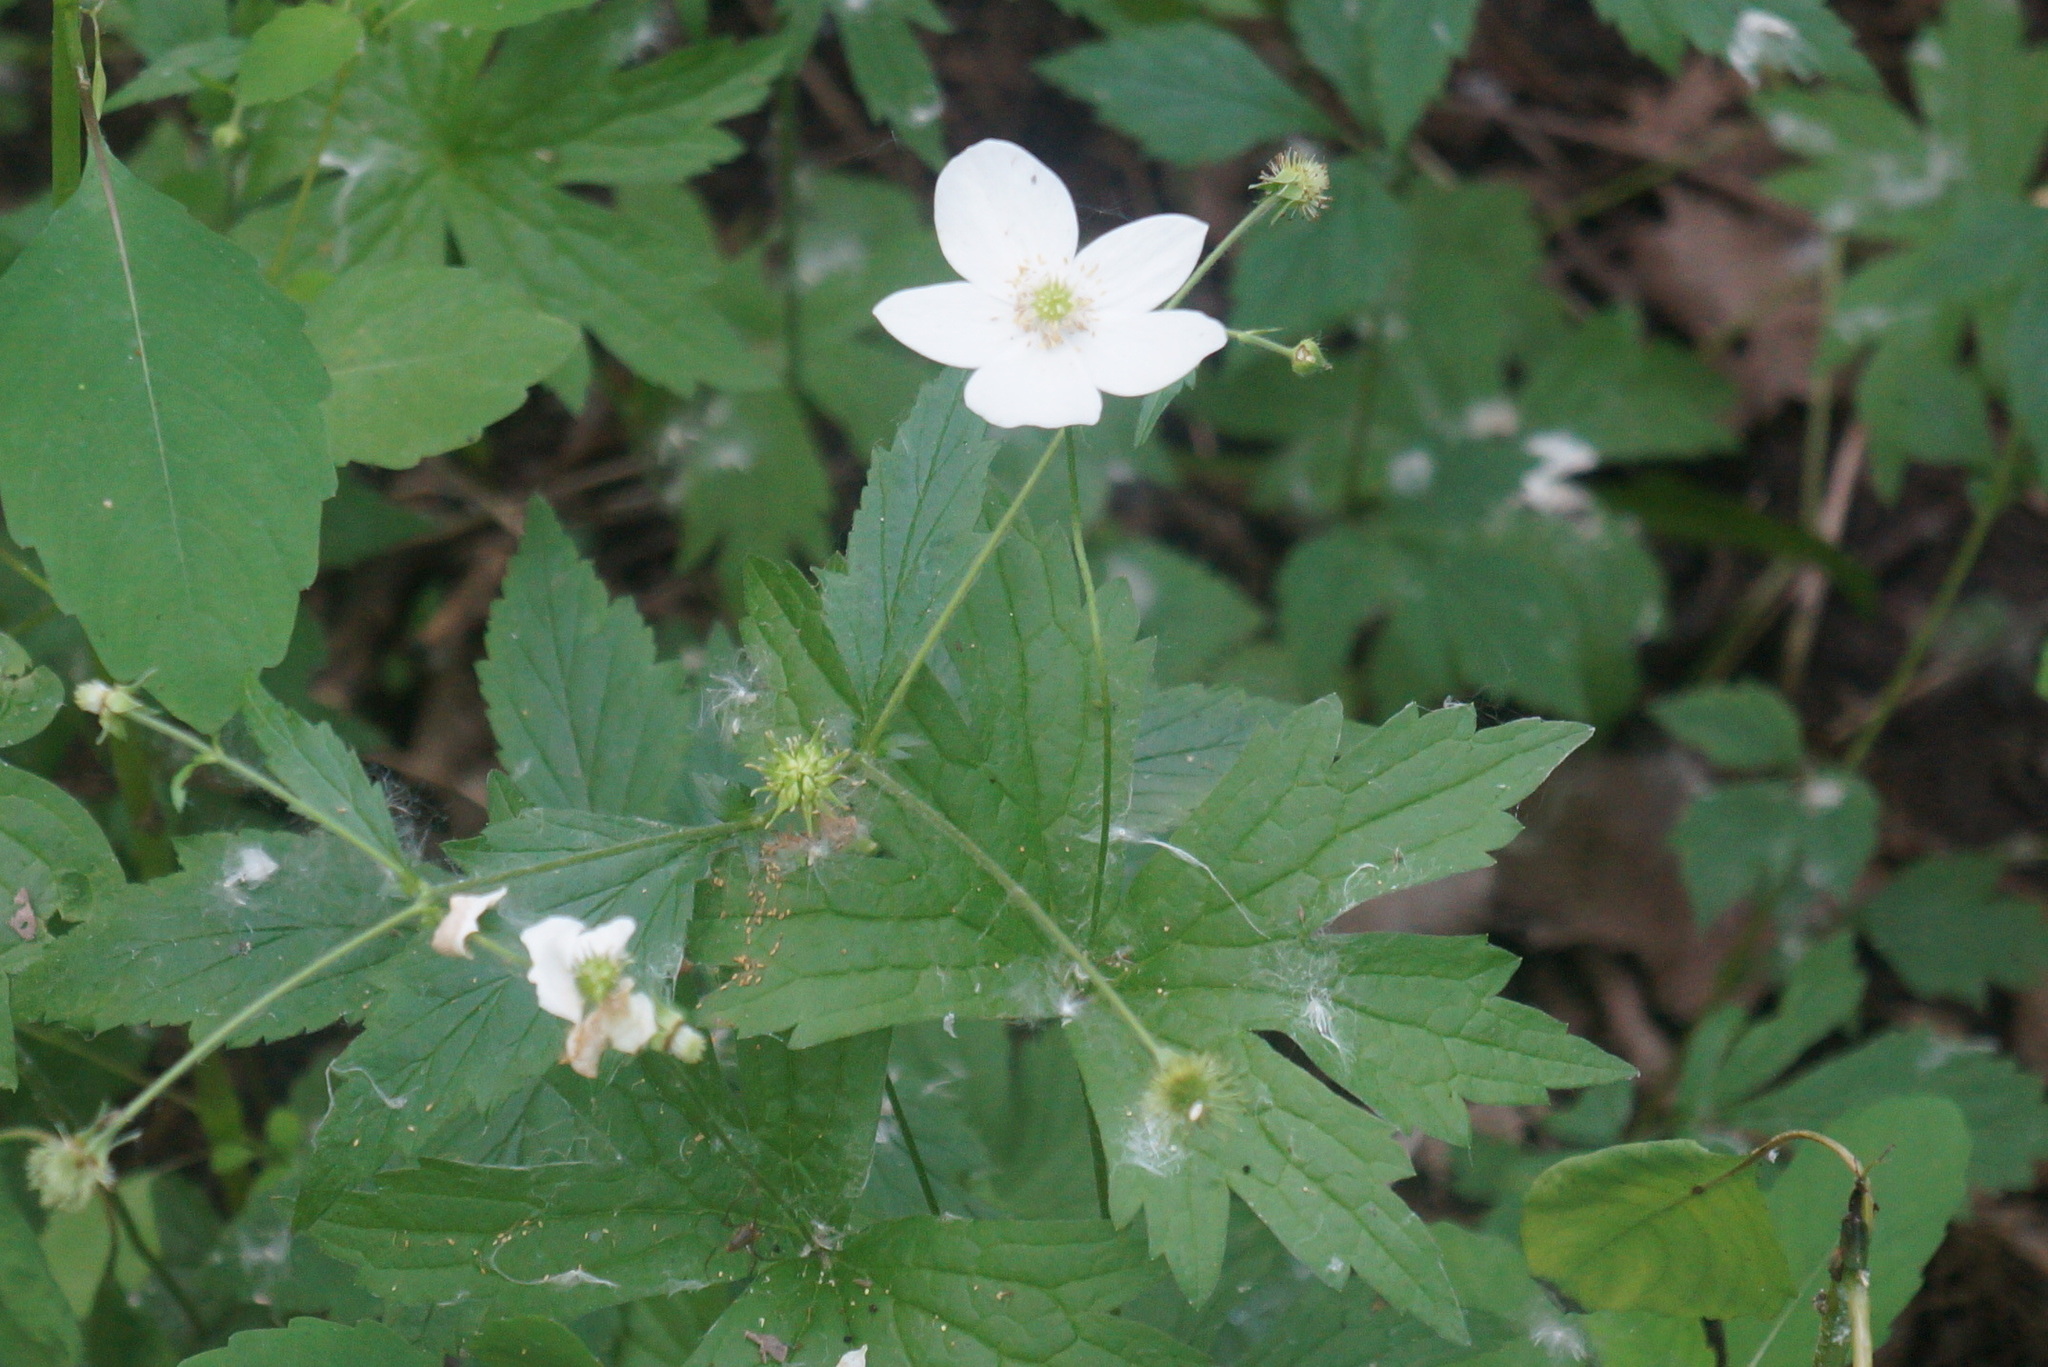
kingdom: Plantae
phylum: Tracheophyta
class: Magnoliopsida
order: Ranunculales
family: Ranunculaceae
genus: Anemonastrum
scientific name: Anemonastrum canadense
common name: Canada anemone
